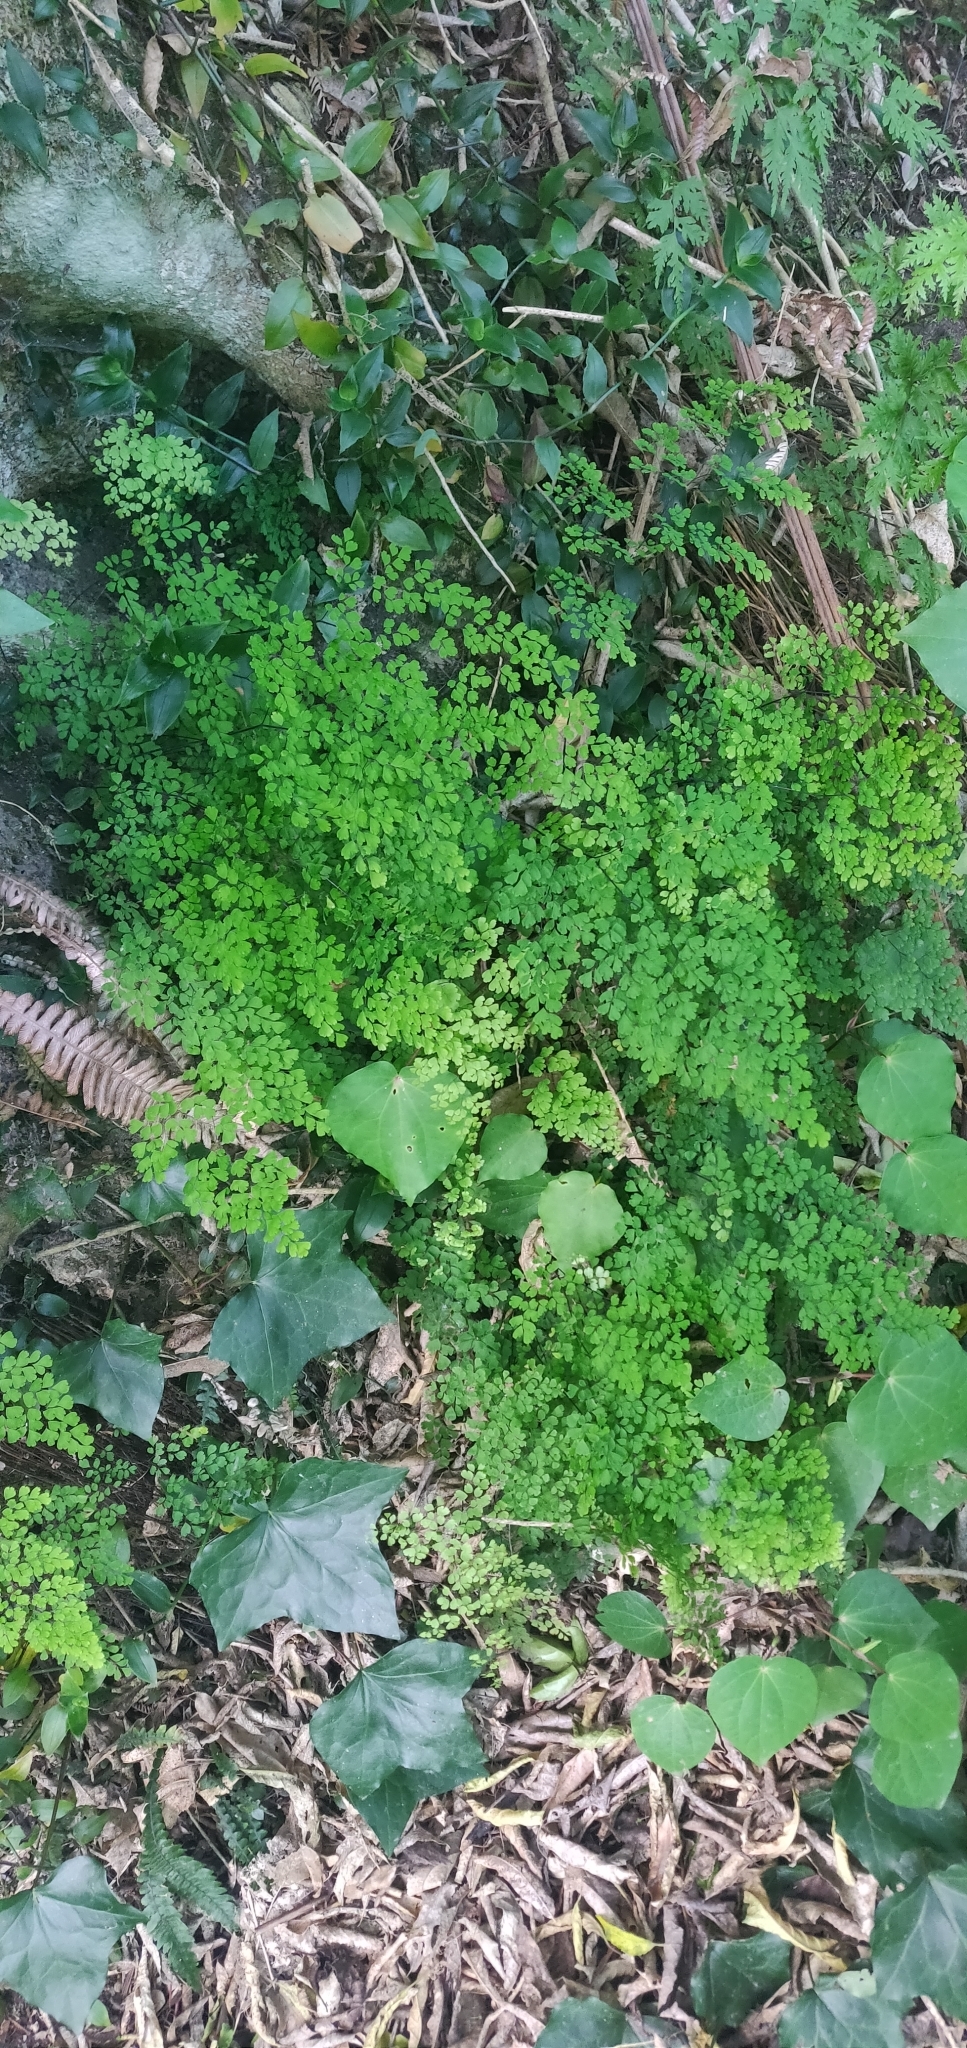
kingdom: Plantae
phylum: Tracheophyta
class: Polypodiopsida
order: Polypodiales
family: Pteridaceae
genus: Adiantum
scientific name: Adiantum raddianum
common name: Delta maidenhair fern
